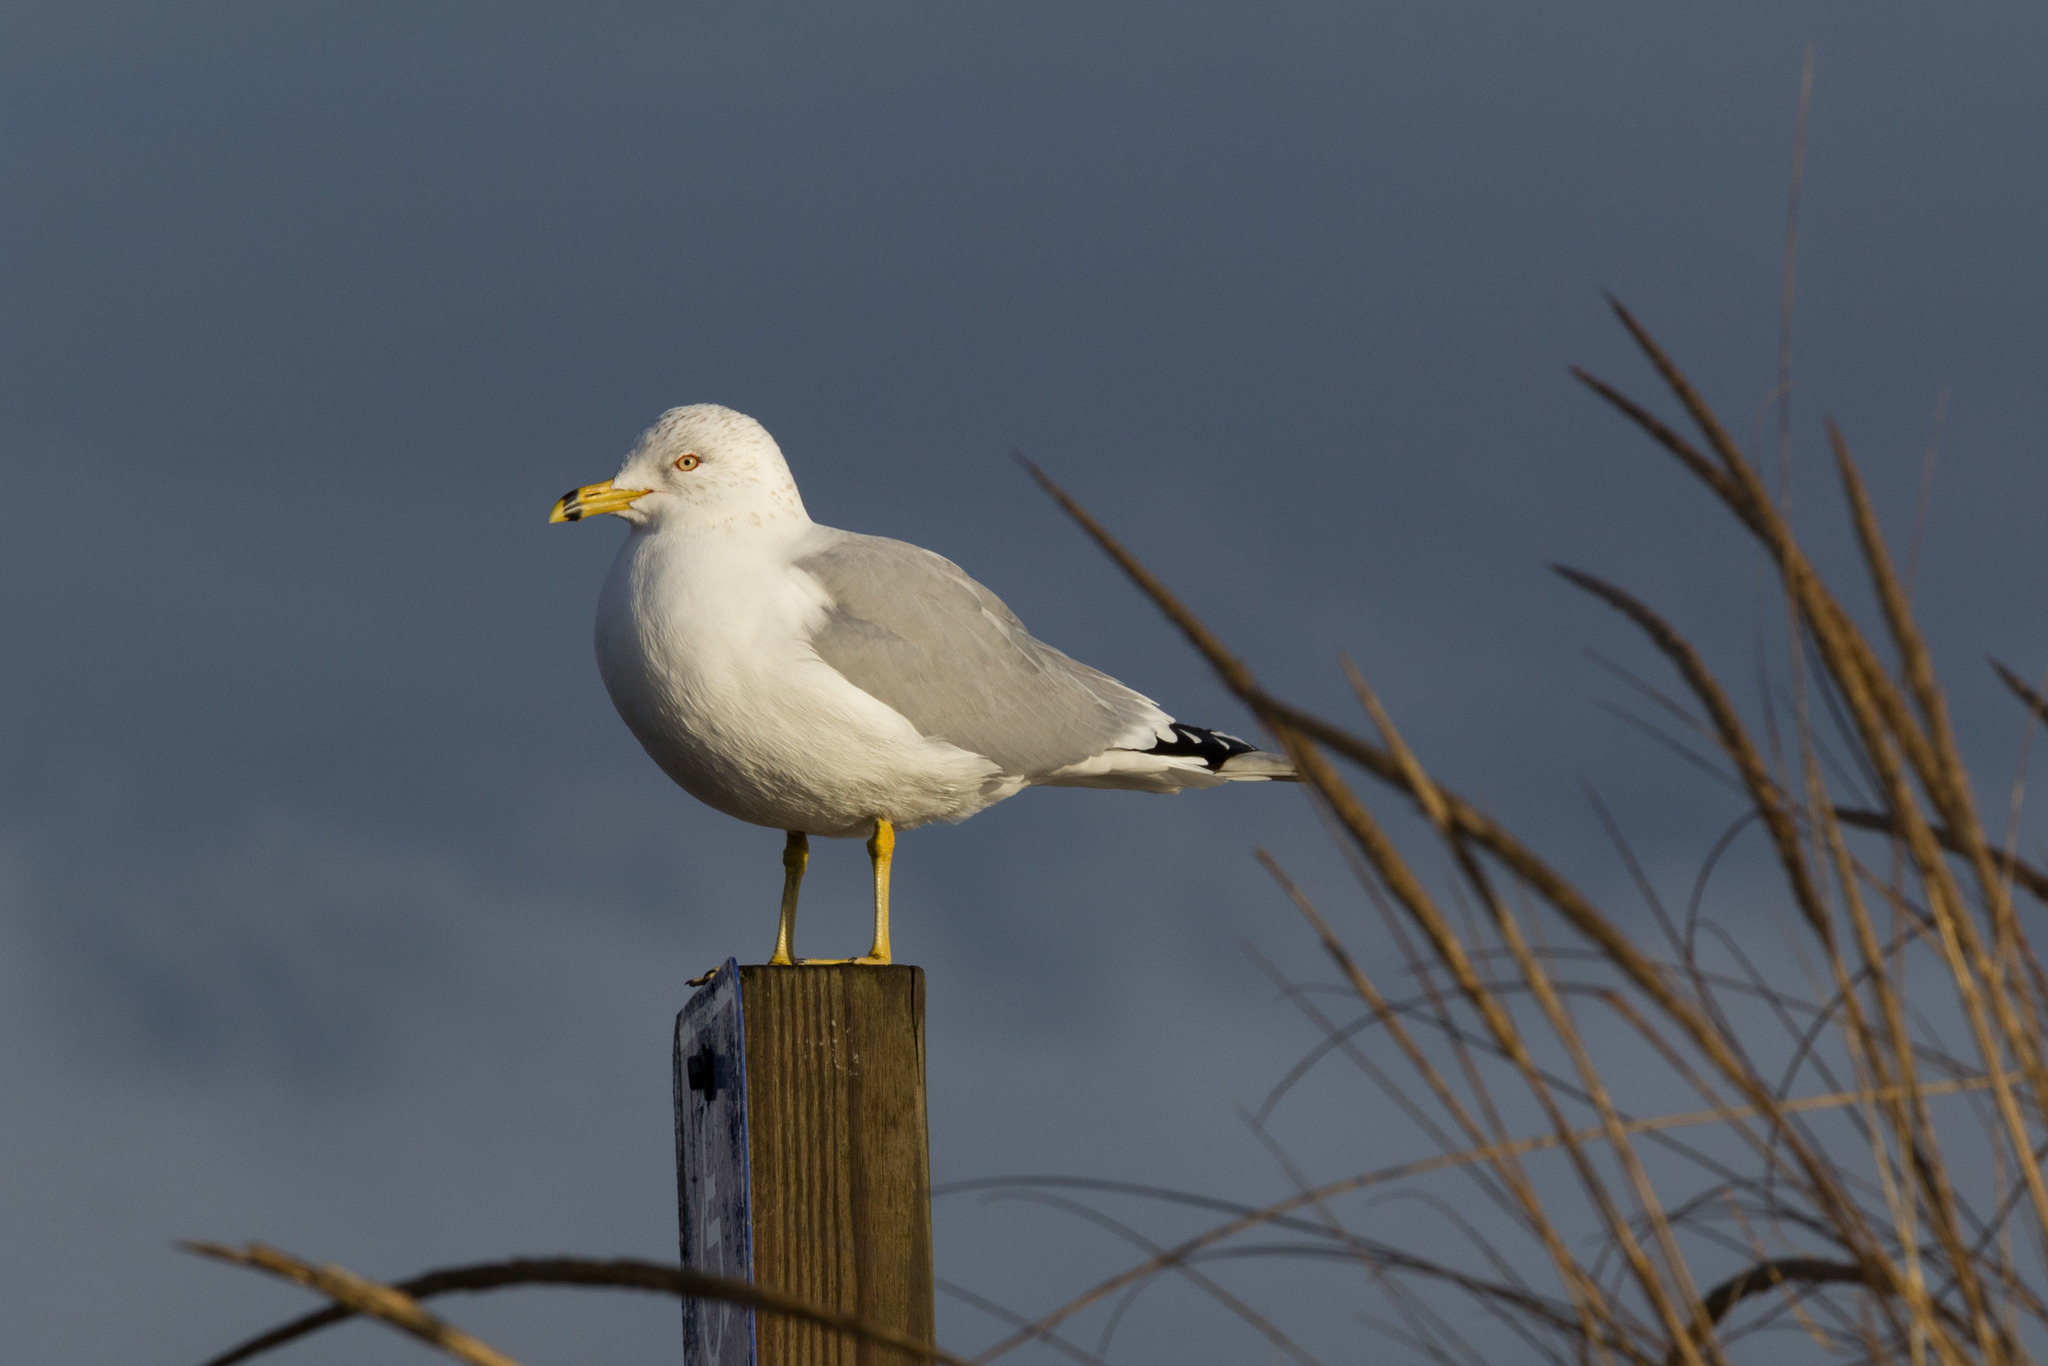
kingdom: Animalia
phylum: Chordata
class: Aves
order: Charadriiformes
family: Laridae
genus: Larus
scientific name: Larus delawarensis
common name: Ring-billed gull
